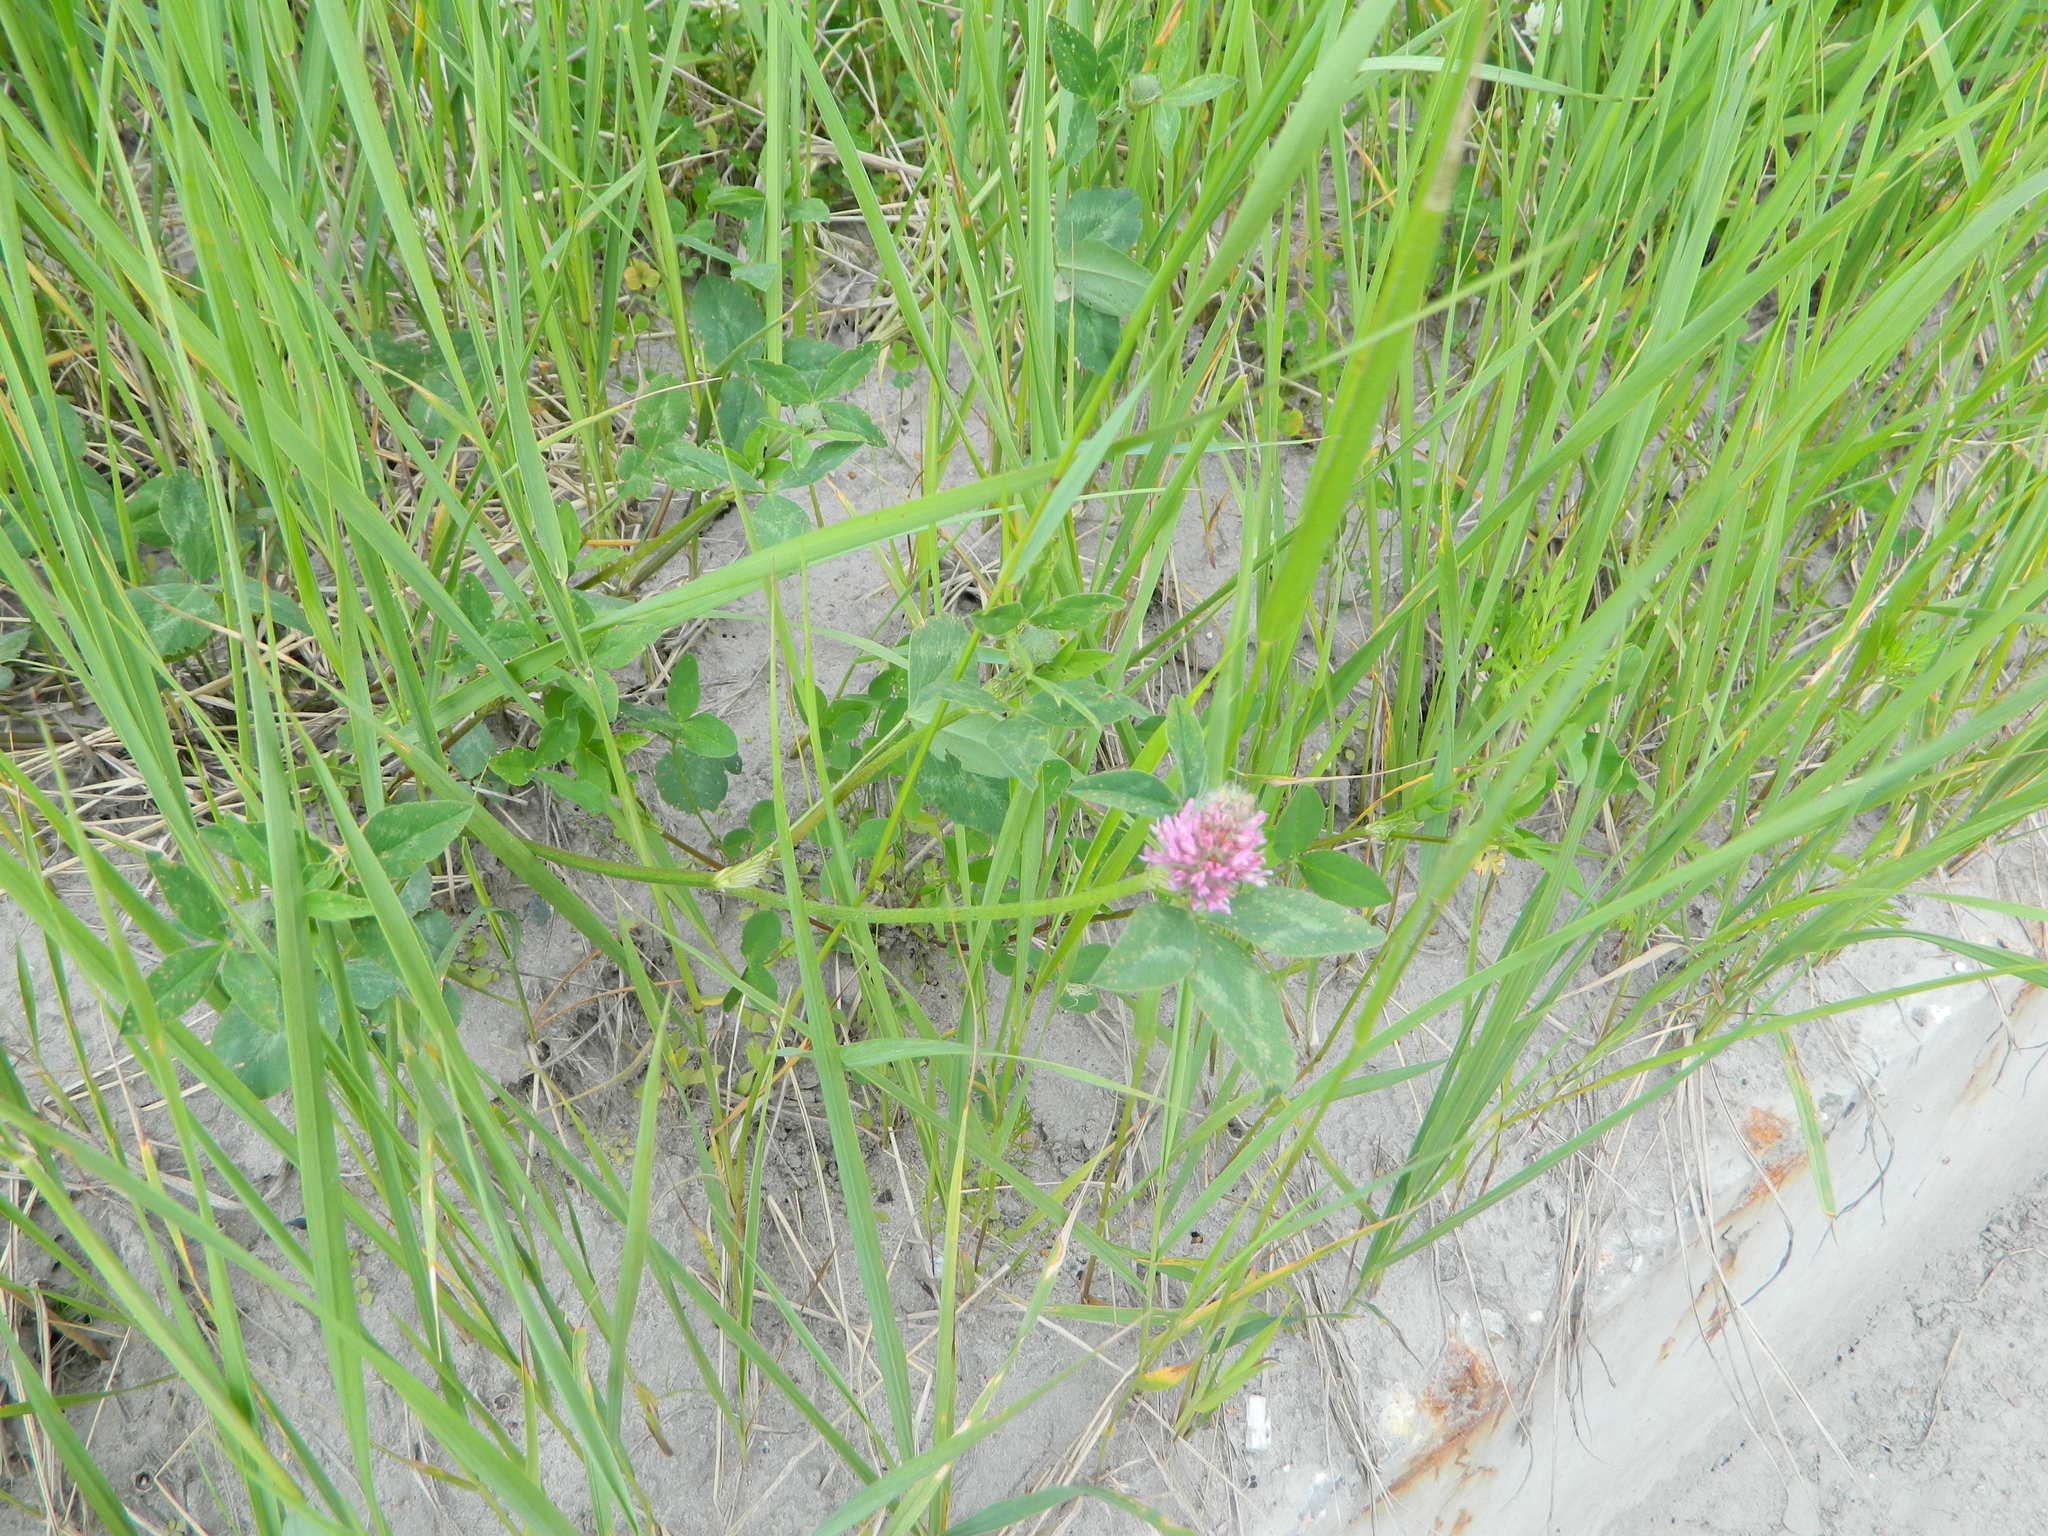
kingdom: Plantae
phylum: Tracheophyta
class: Magnoliopsida
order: Fabales
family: Fabaceae
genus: Trifolium
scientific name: Trifolium pratense
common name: Red clover
